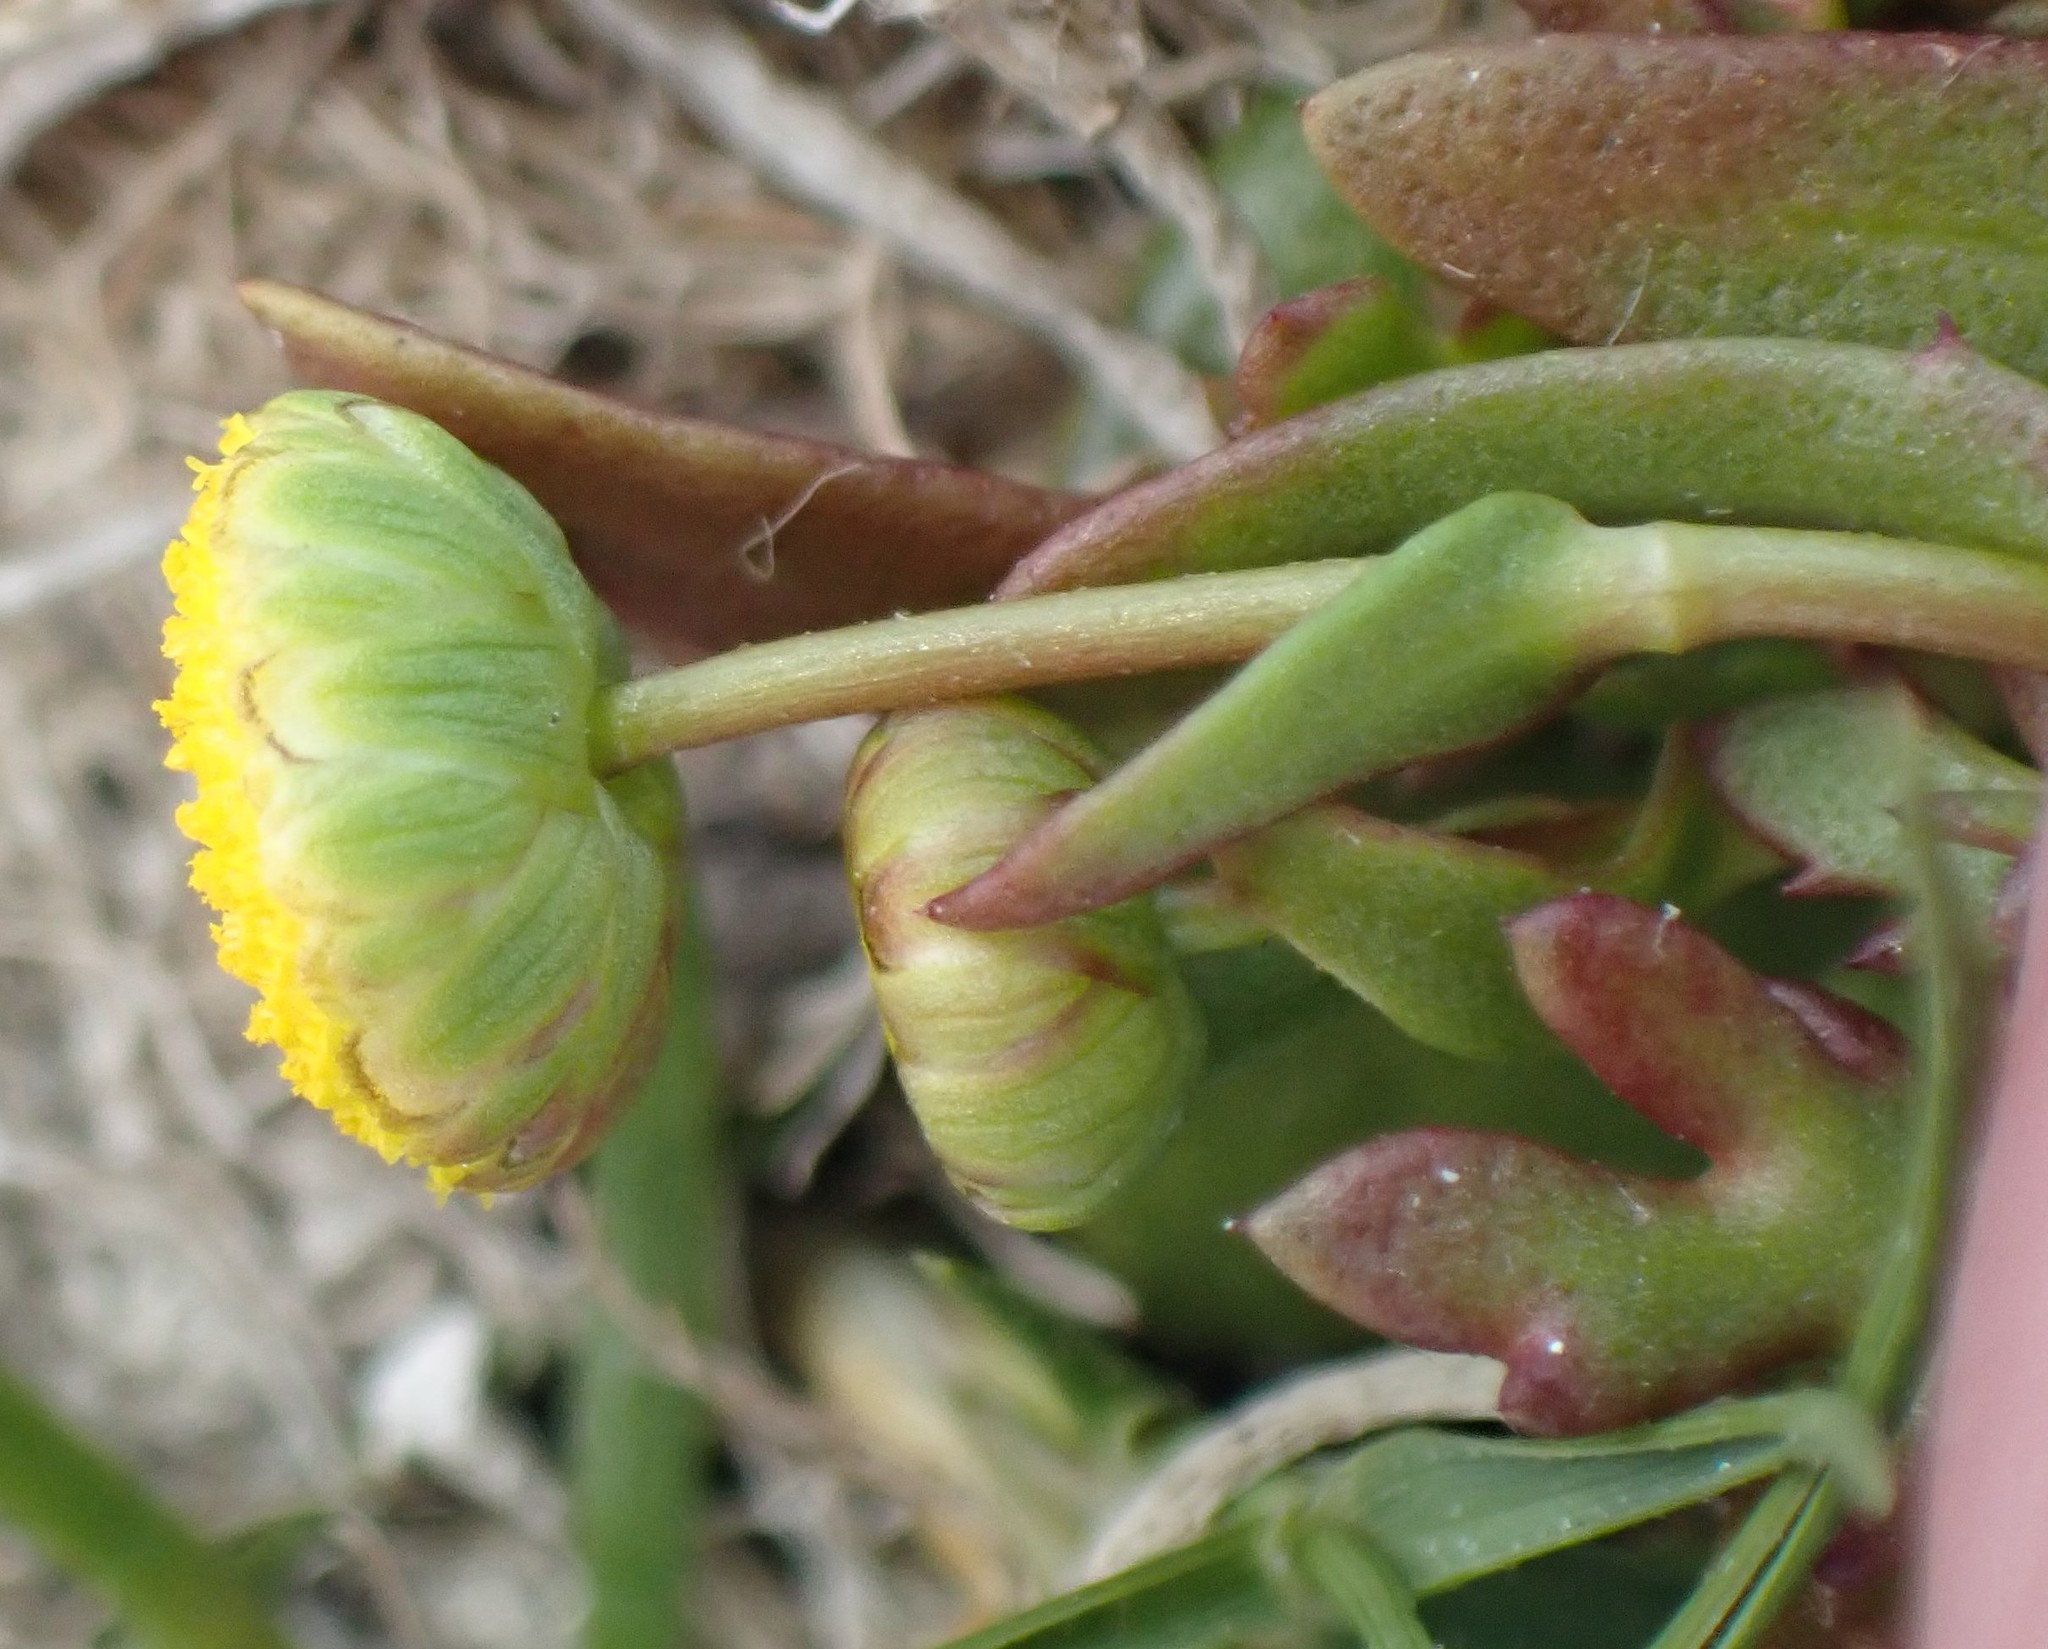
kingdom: Plantae
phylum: Tracheophyta
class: Magnoliopsida
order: Asterales
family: Asteraceae
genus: Cotula
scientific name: Cotula coronopifolia
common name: Buttonweed
